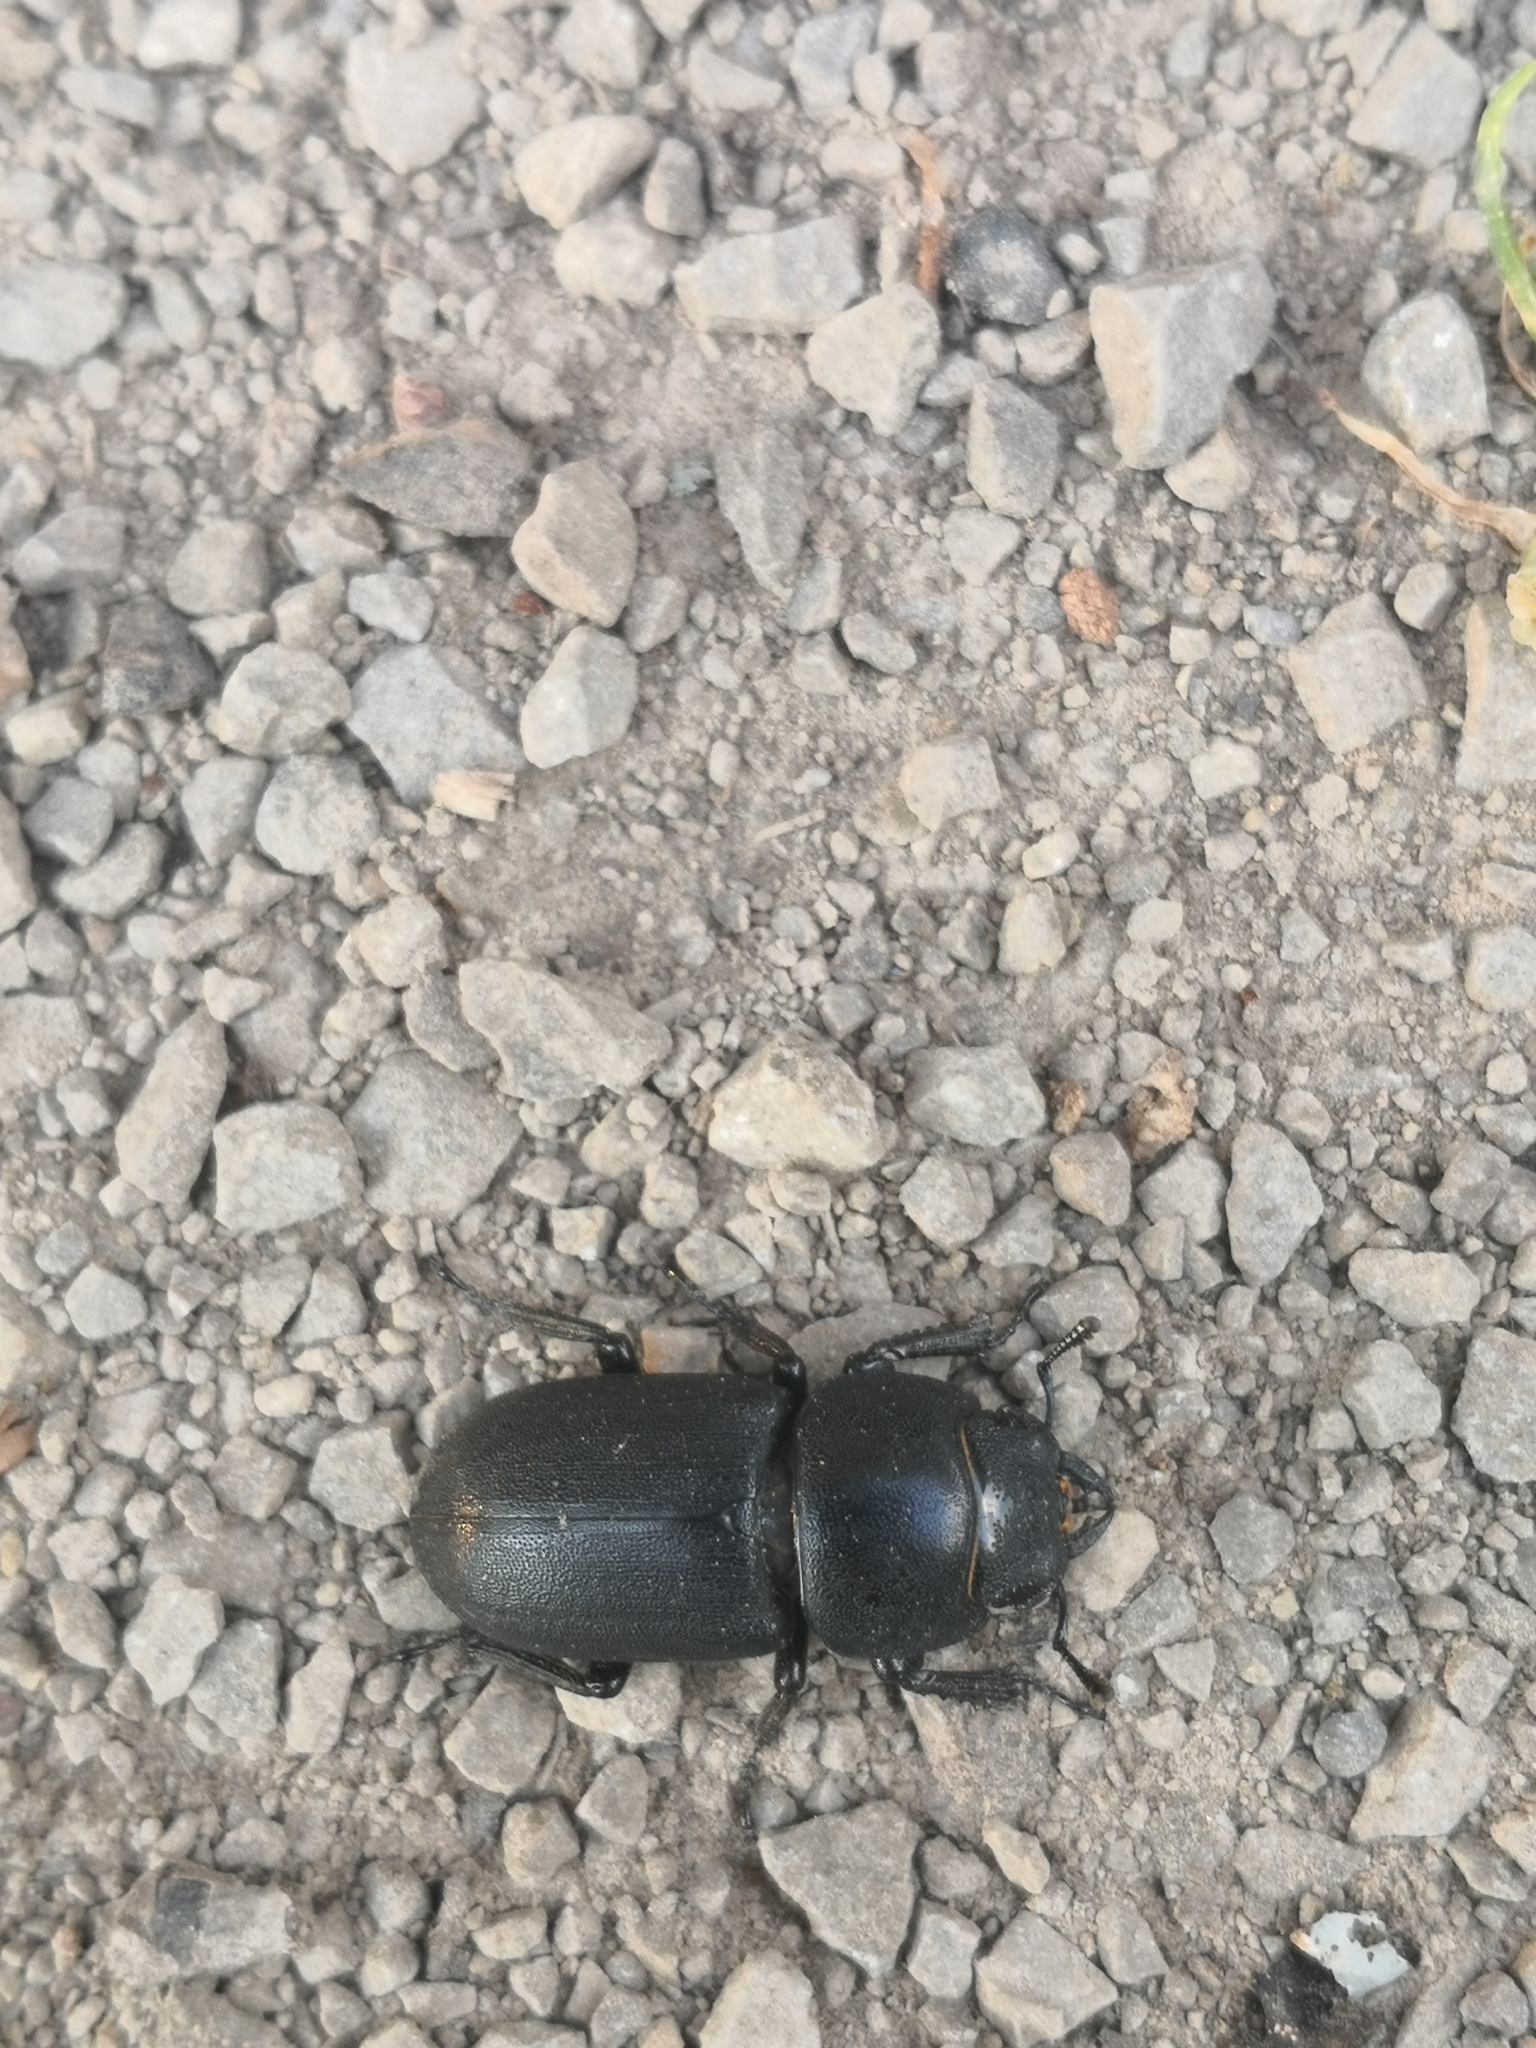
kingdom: Animalia
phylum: Arthropoda
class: Insecta
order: Coleoptera
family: Lucanidae
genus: Dorcus
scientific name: Dorcus parallelipipedus
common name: Lesser stag beetle
